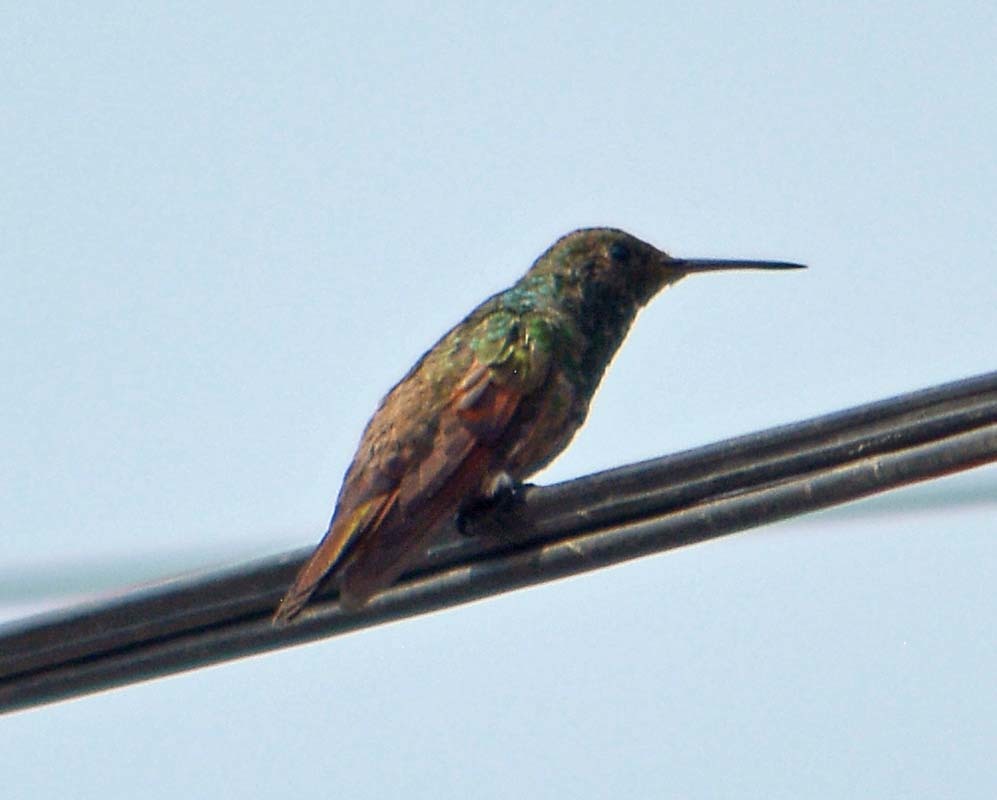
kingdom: Animalia
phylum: Chordata
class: Aves
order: Apodiformes
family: Trochilidae
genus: Saucerottia
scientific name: Saucerottia beryllina
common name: Berylline hummingbird
